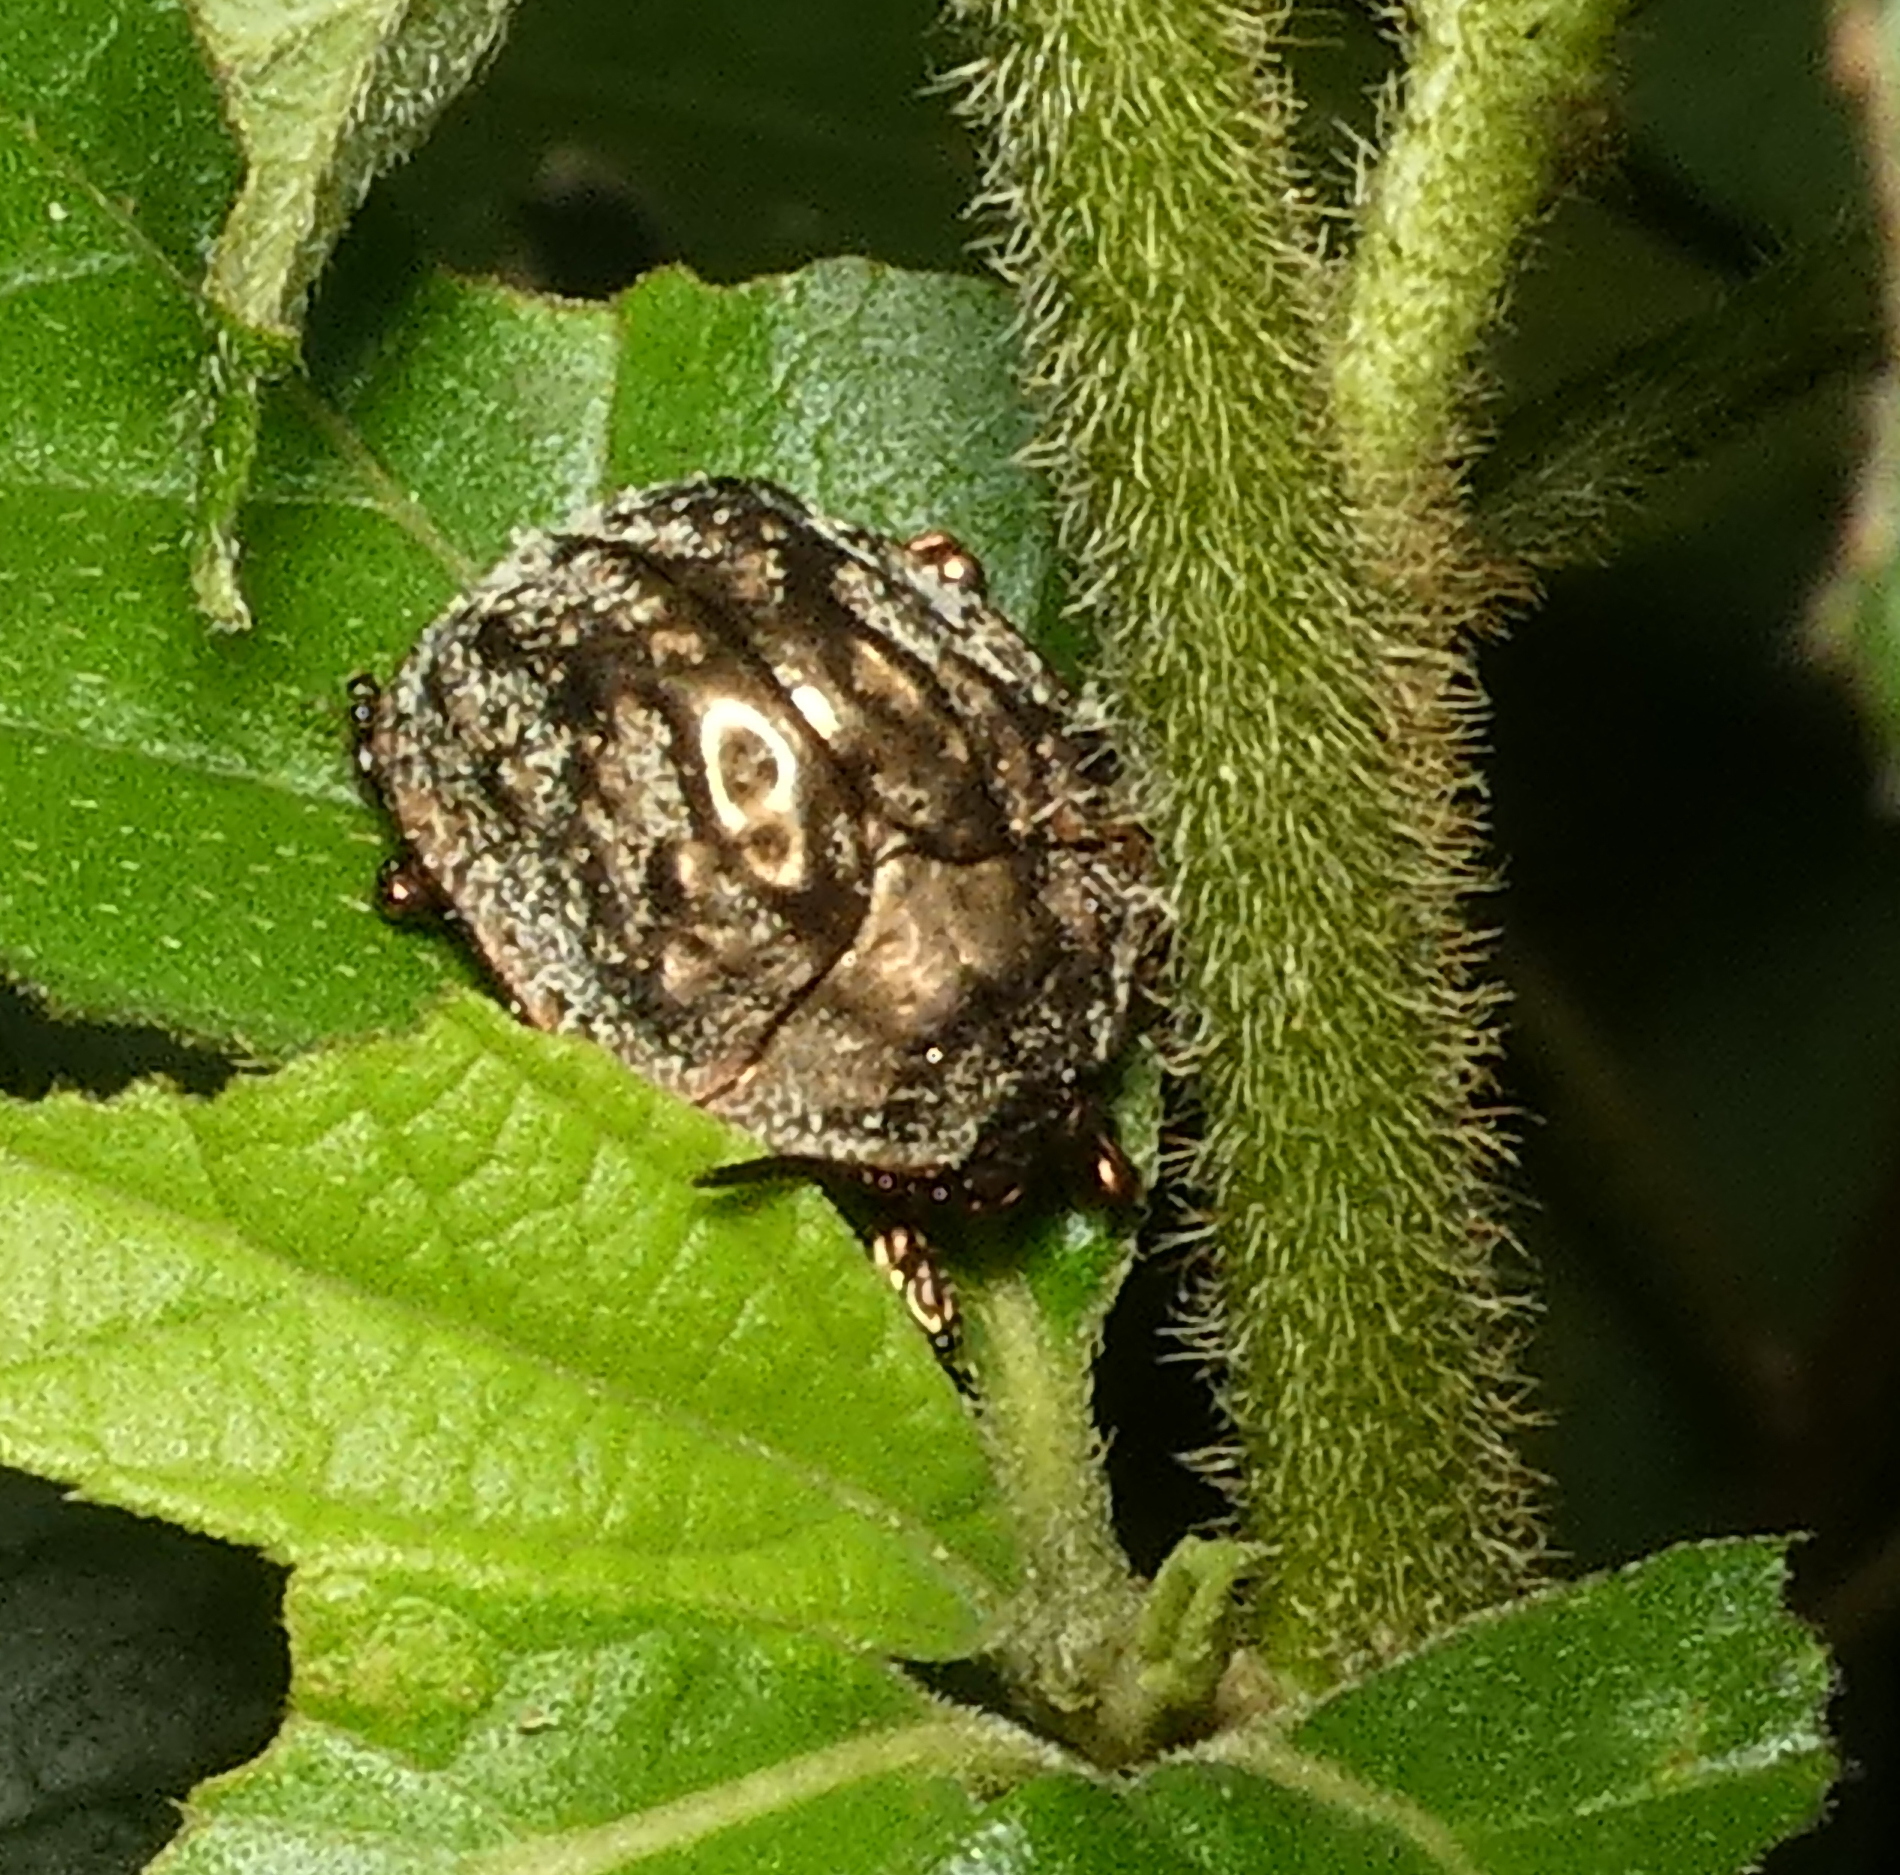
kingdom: Animalia
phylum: Arthropoda
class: Insecta
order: Coleoptera
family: Chrysomelidae
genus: Polychalca
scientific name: Polychalca aerea
